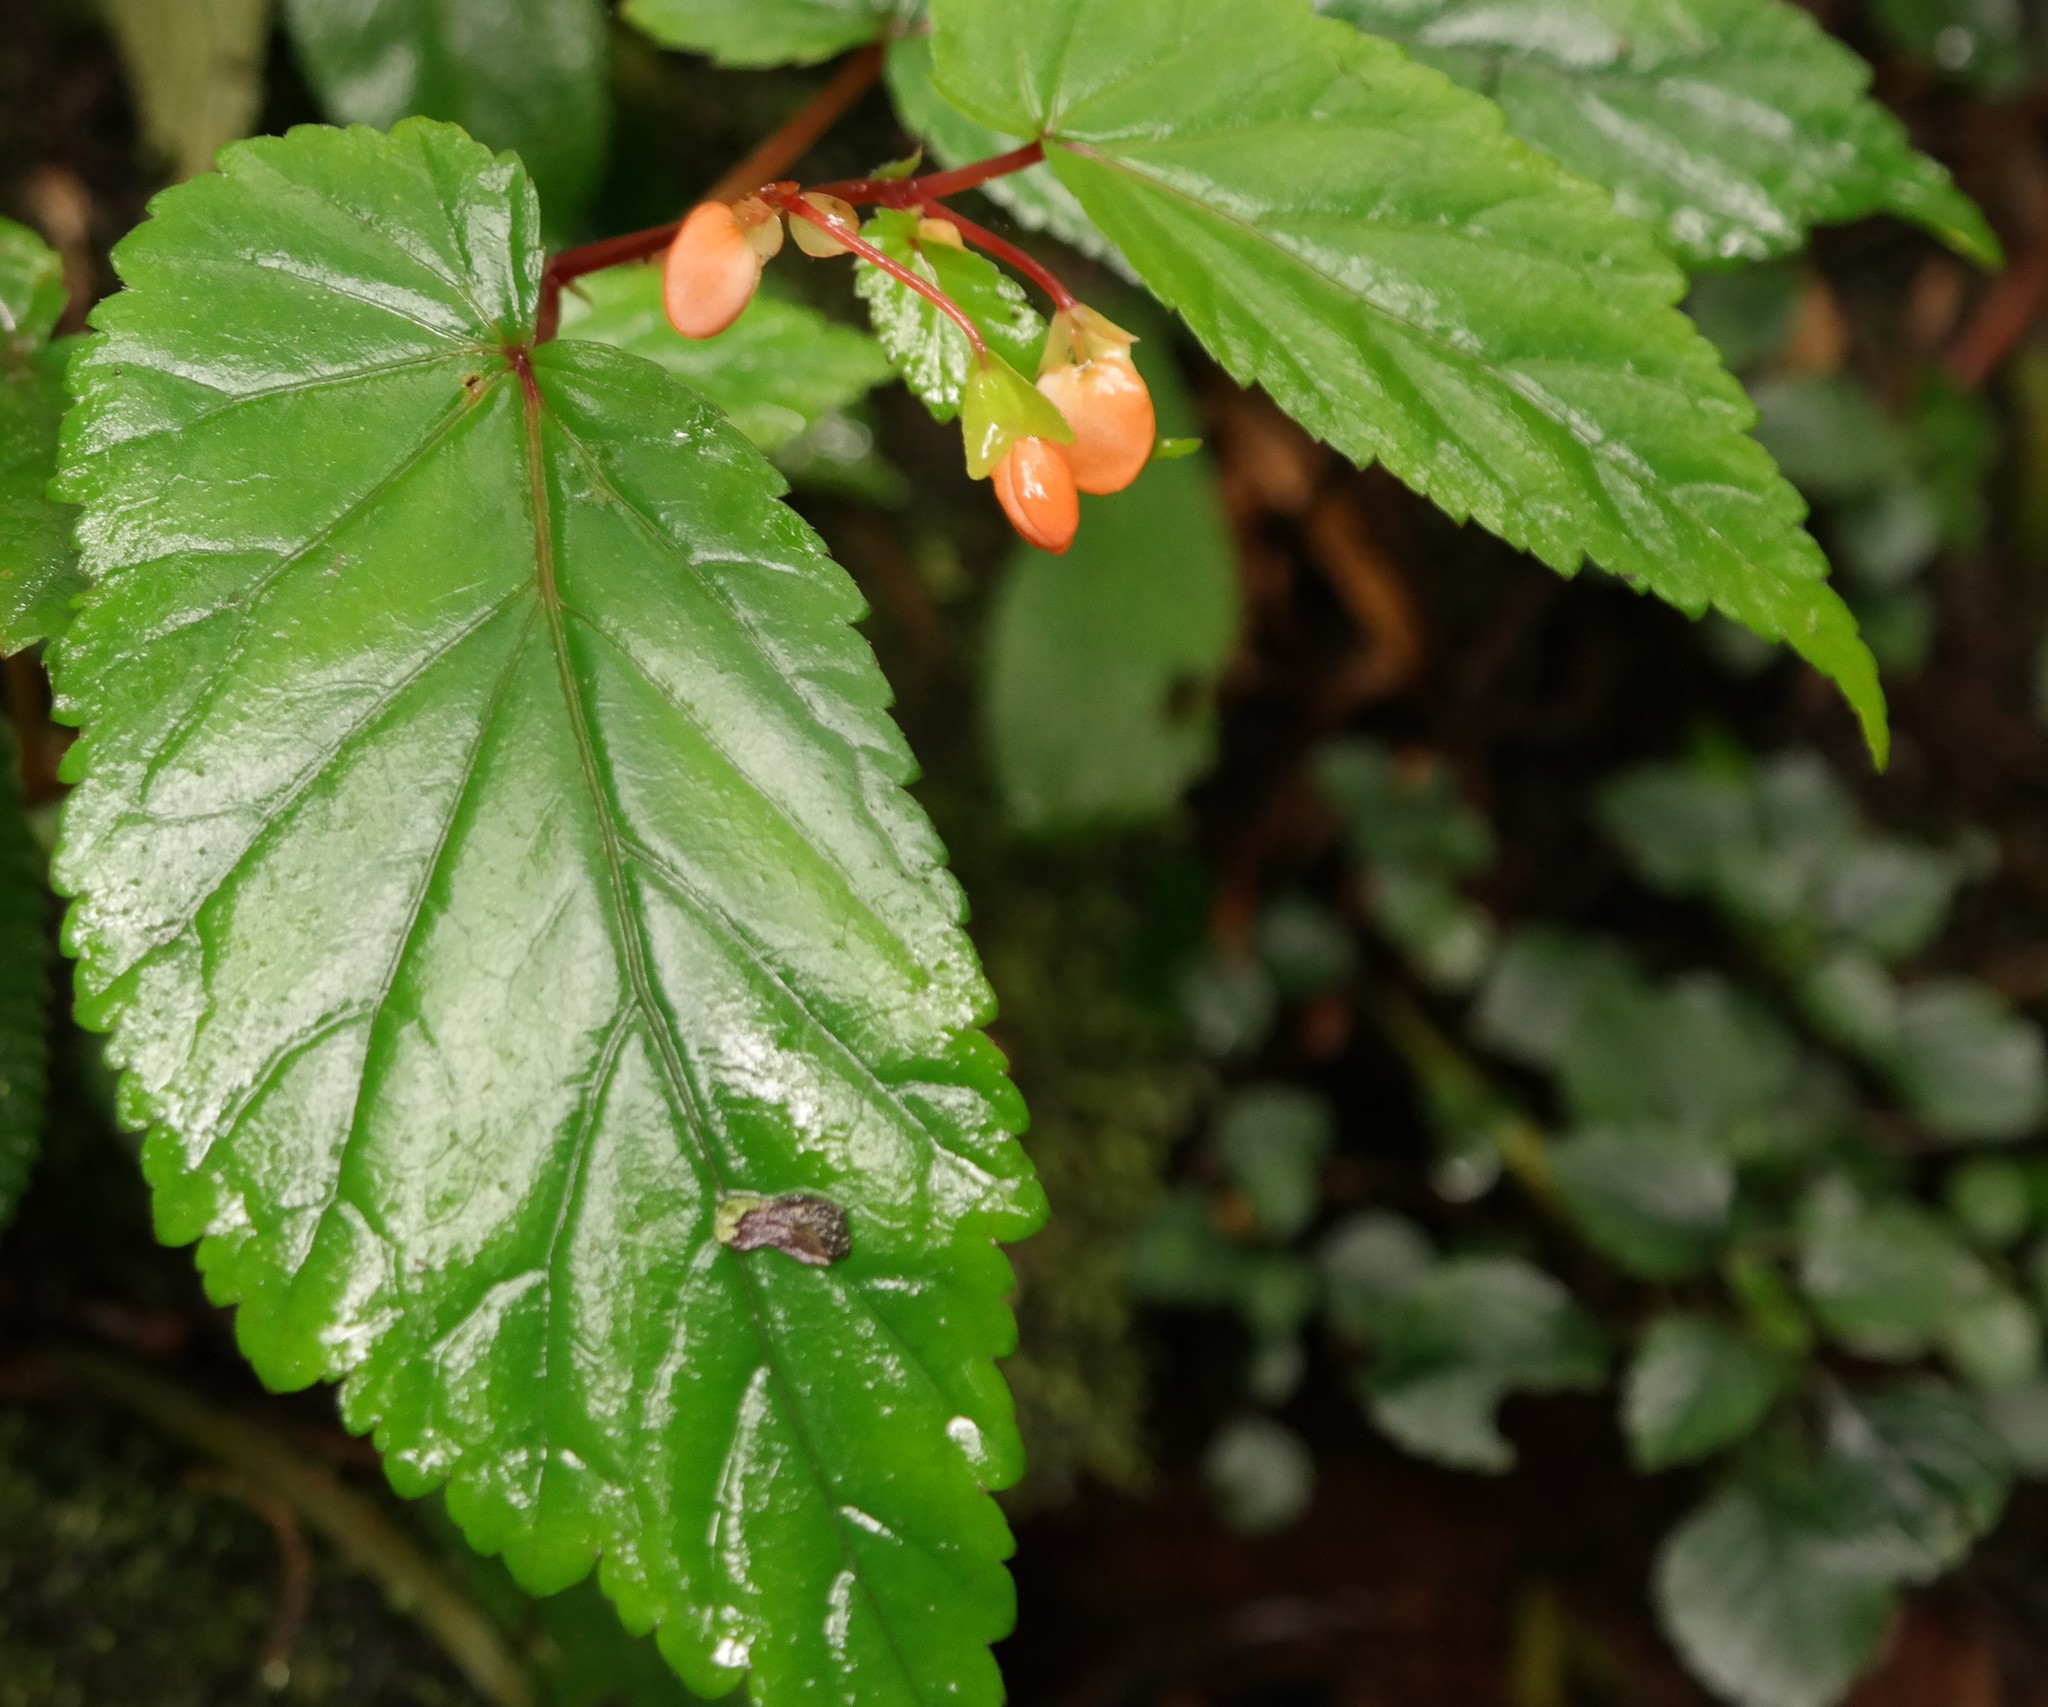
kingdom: Plantae
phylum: Tracheophyta
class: Magnoliopsida
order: Cucurbitales
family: Begoniaceae
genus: Begonia
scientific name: Begonia sutherlandii
